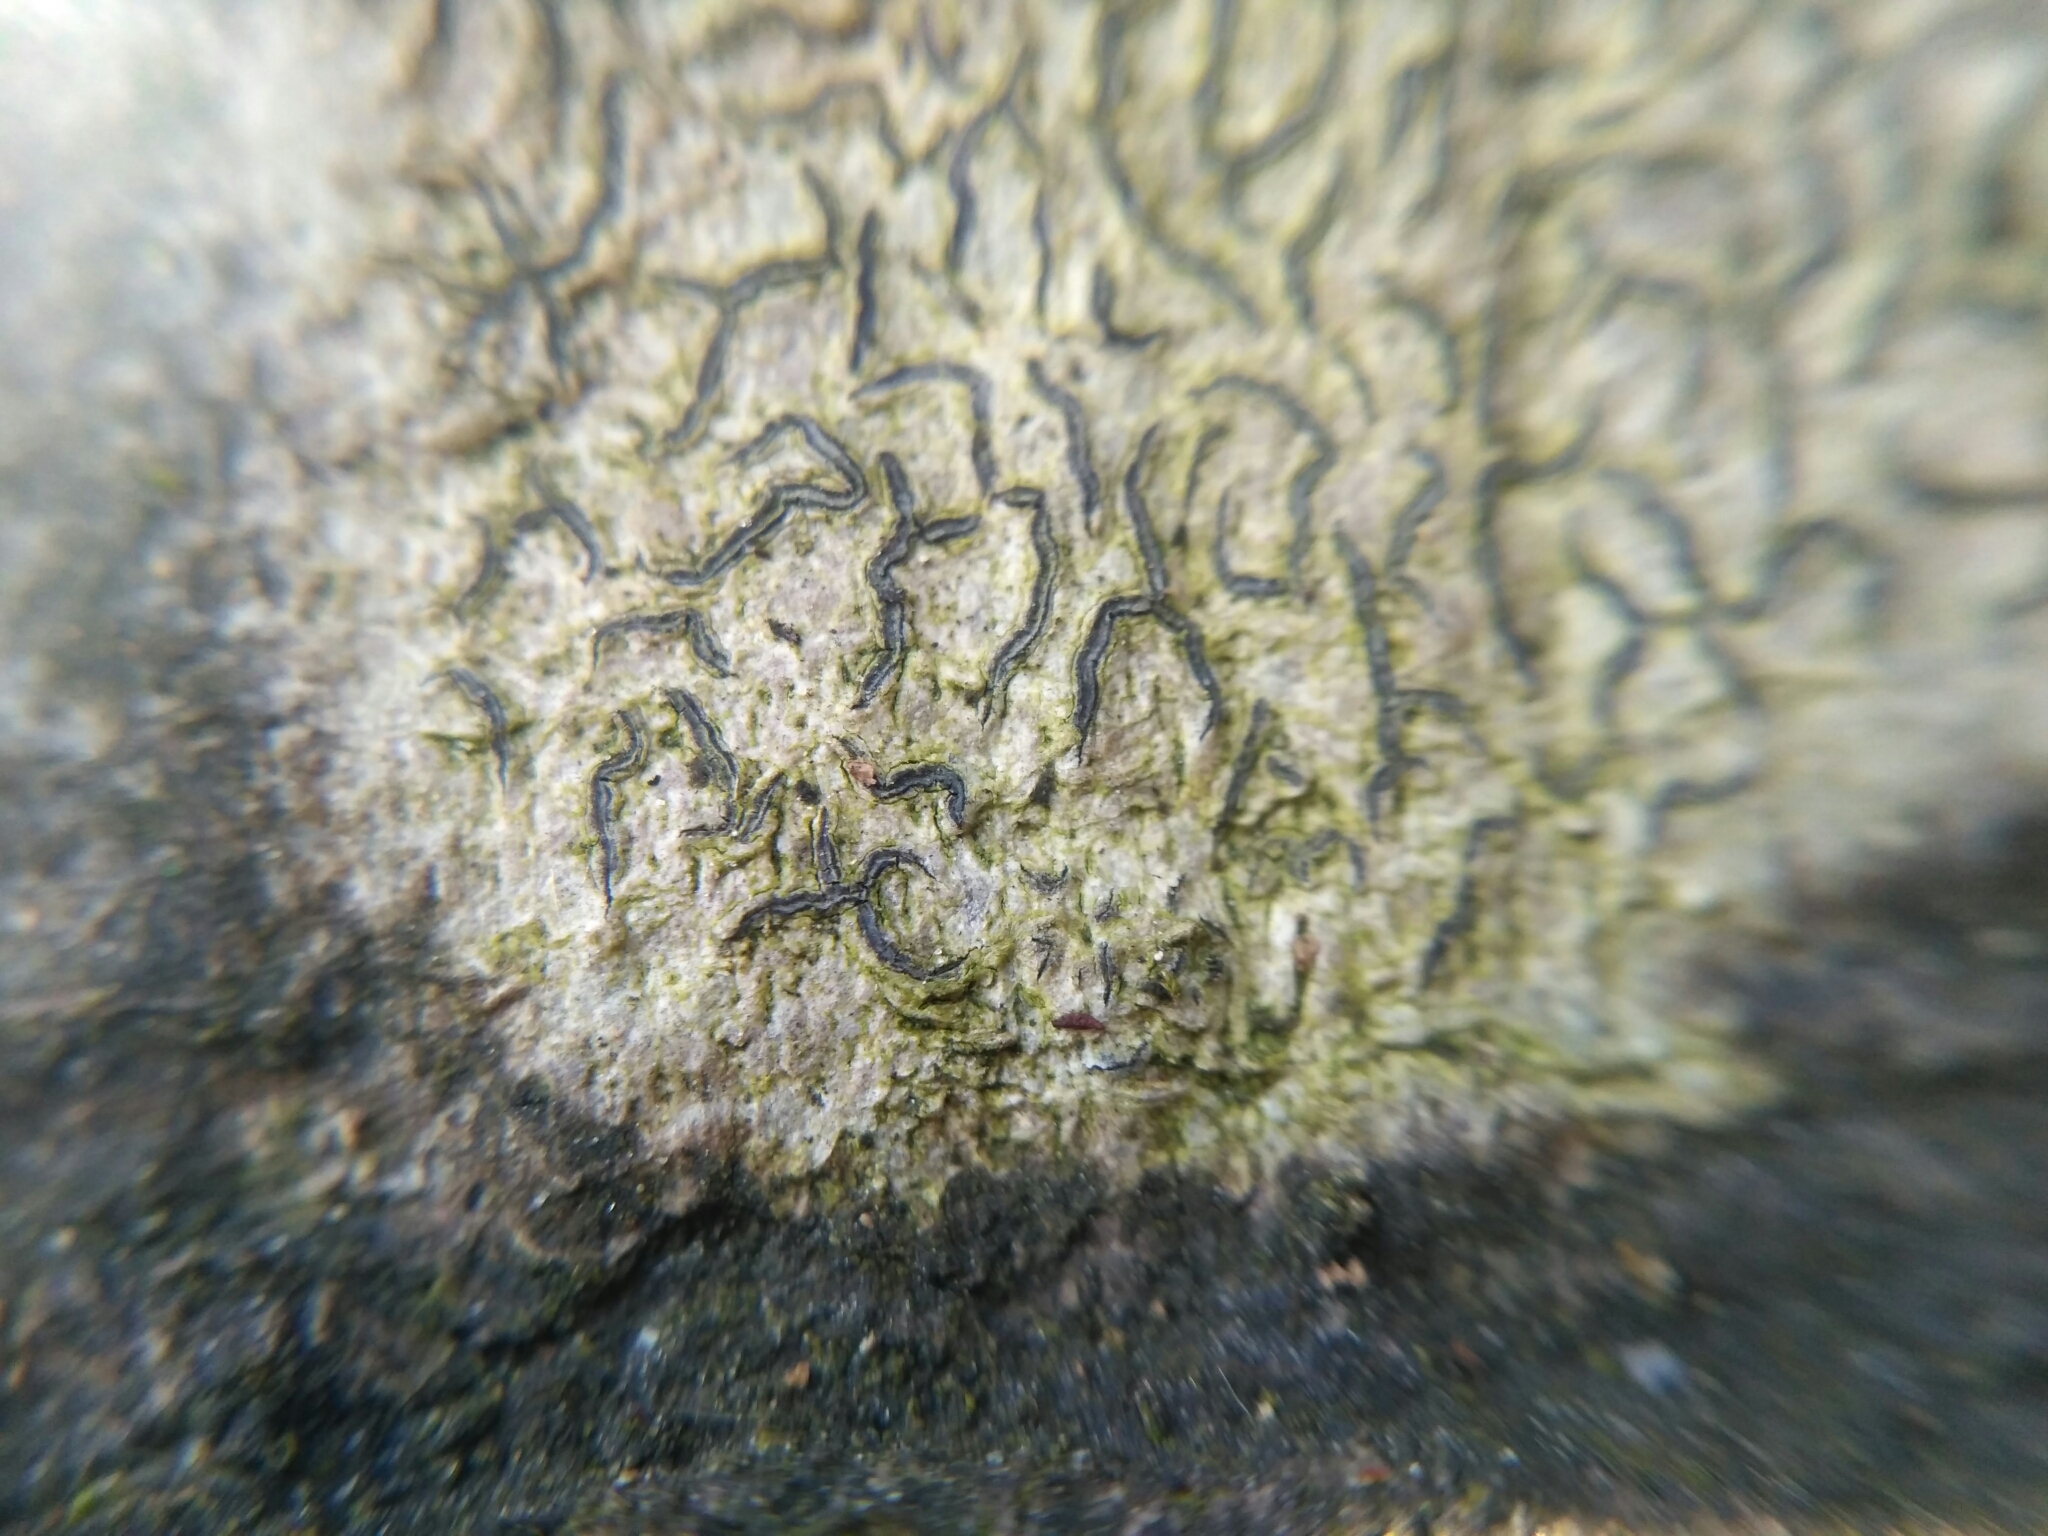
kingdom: Fungi
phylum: Ascomycota
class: Lecanoromycetes
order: Ostropales
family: Graphidaceae
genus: Graphis
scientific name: Graphis scripta
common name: Script lichen
